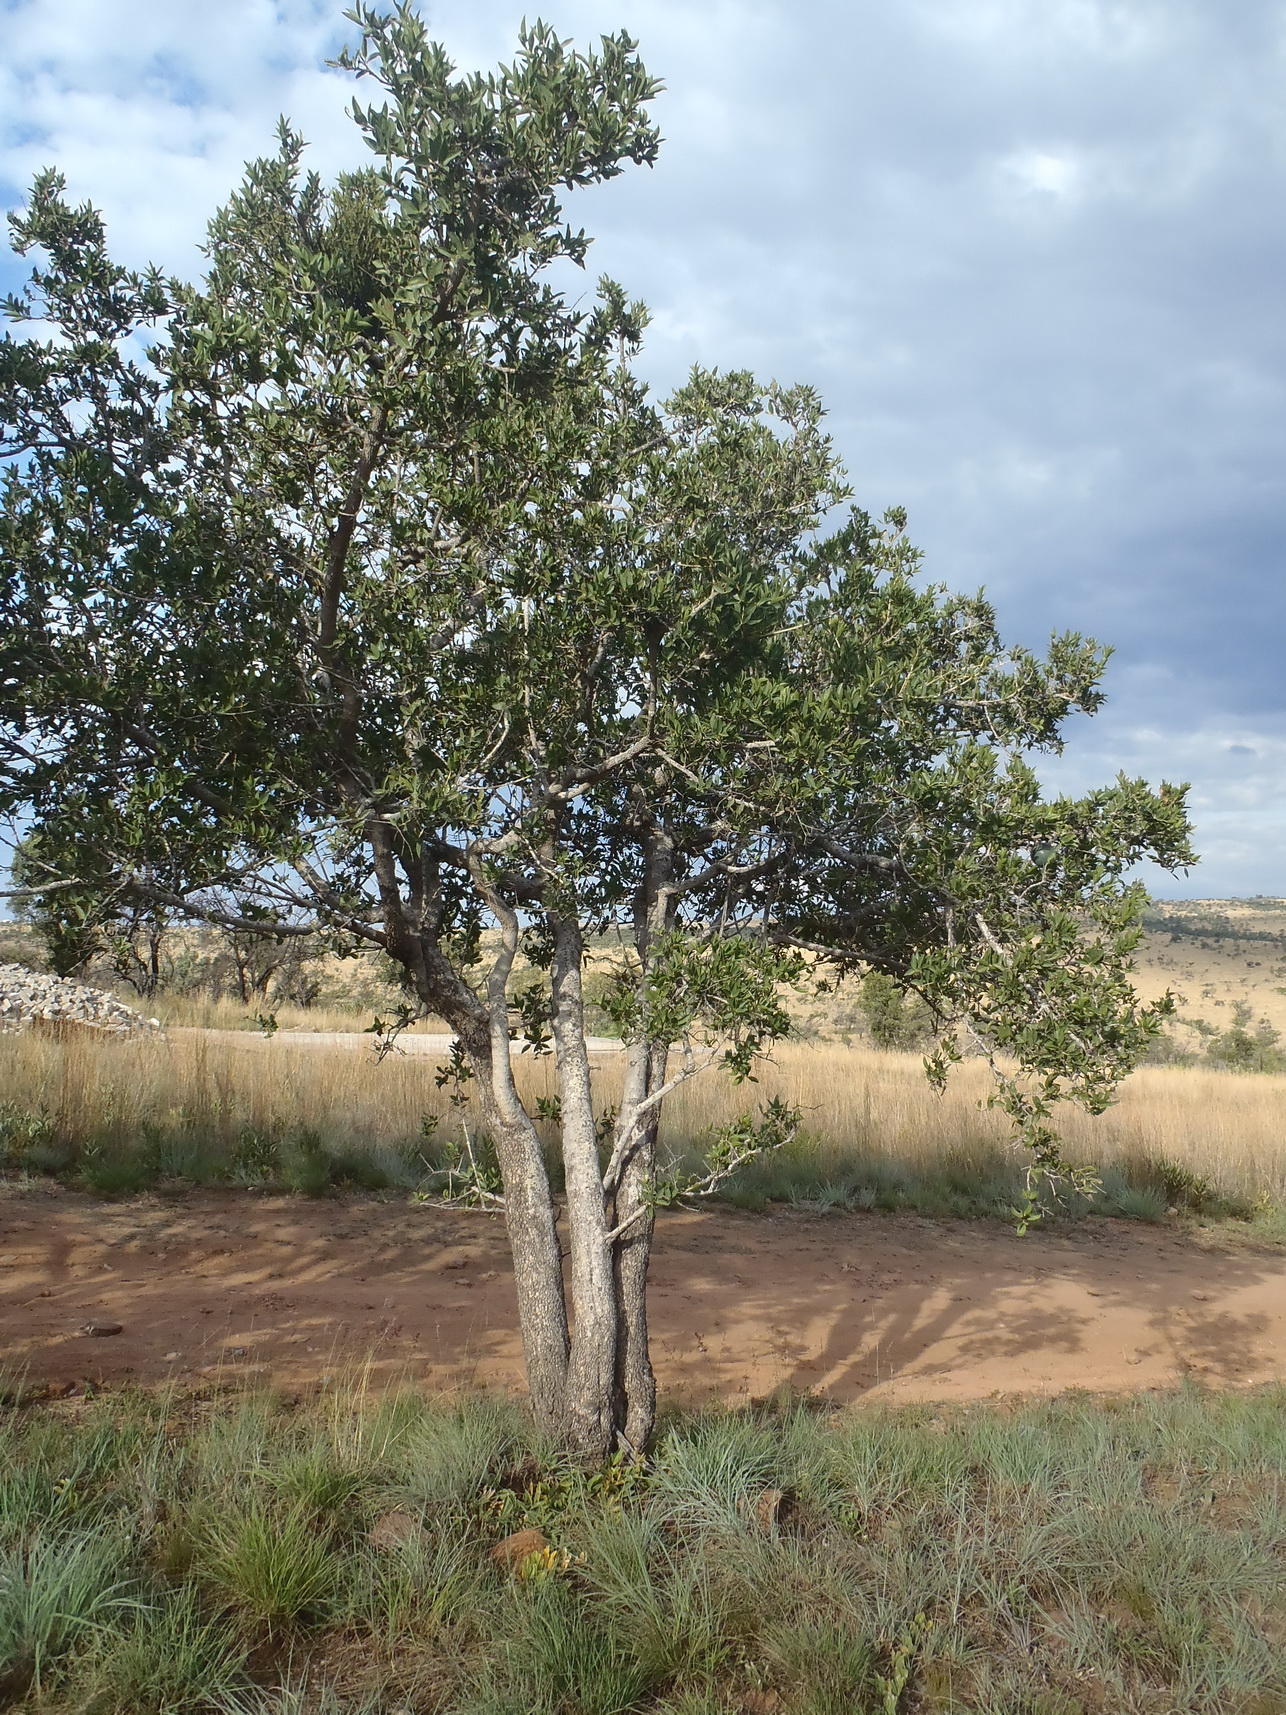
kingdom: Plantae
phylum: Tracheophyta
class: Magnoliopsida
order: Gentianales
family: Loganiaceae
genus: Strychnos
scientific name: Strychnos pungens
